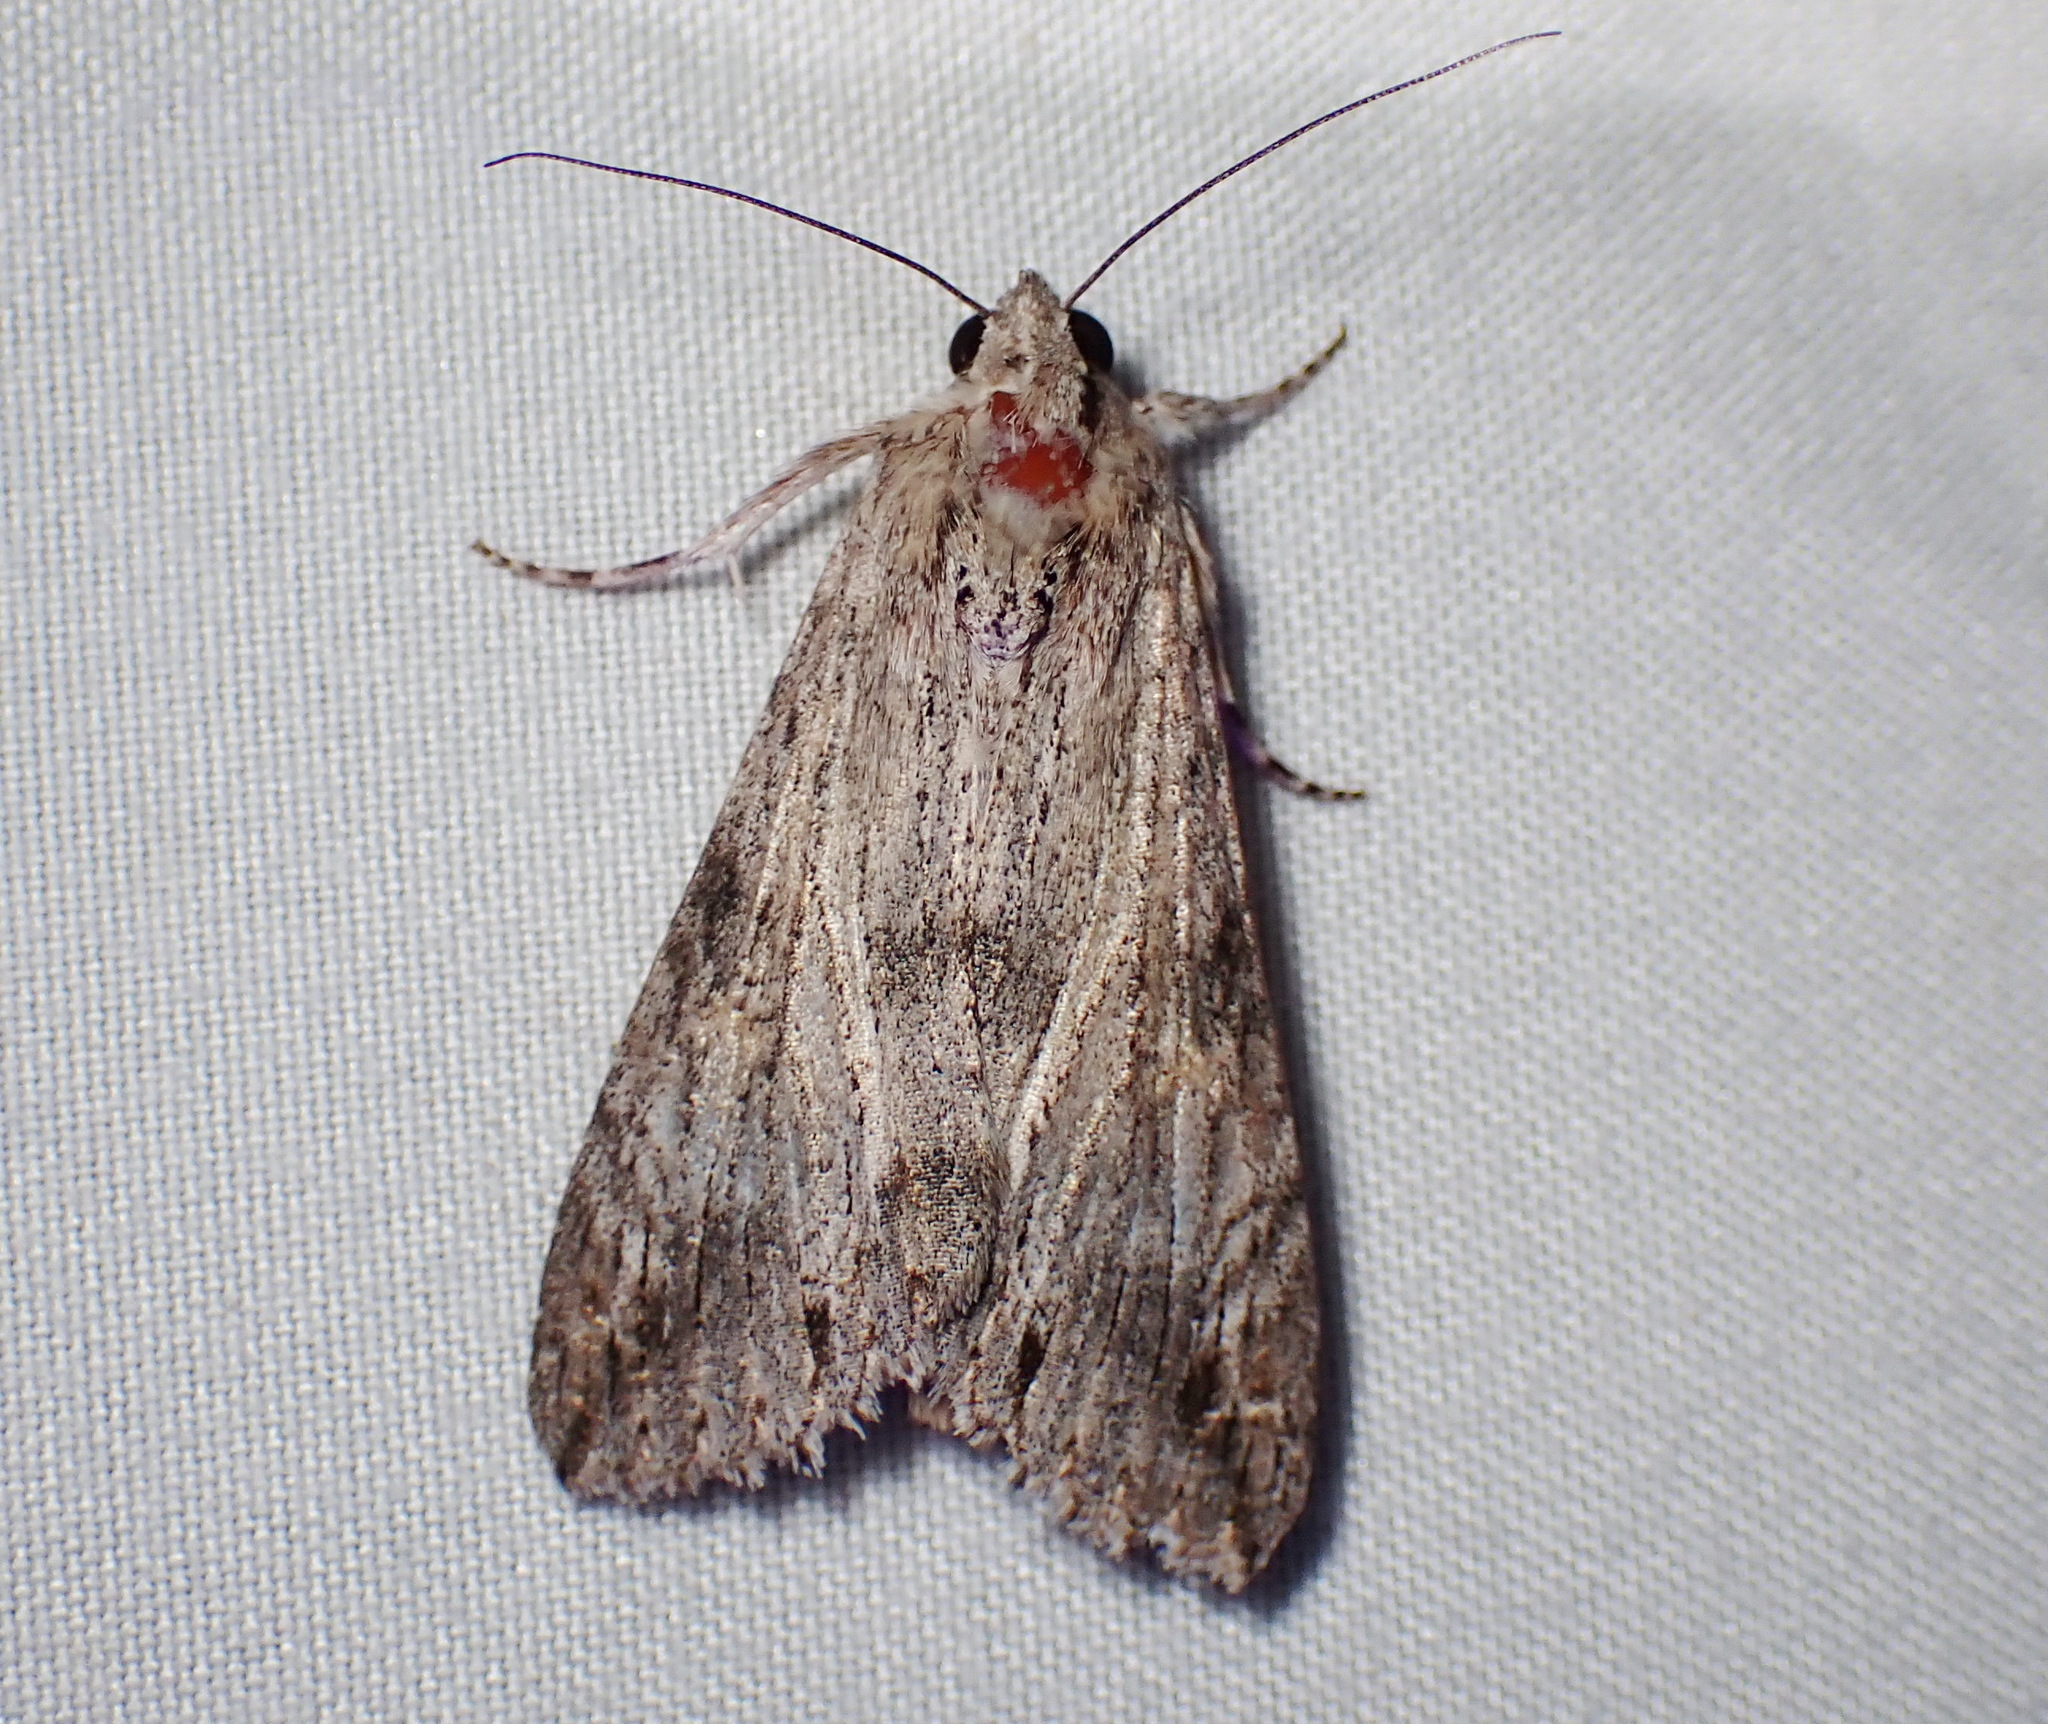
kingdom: Animalia
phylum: Arthropoda
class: Insecta
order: Lepidoptera
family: Erebidae
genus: Melipotis
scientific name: Melipotis acontioides
